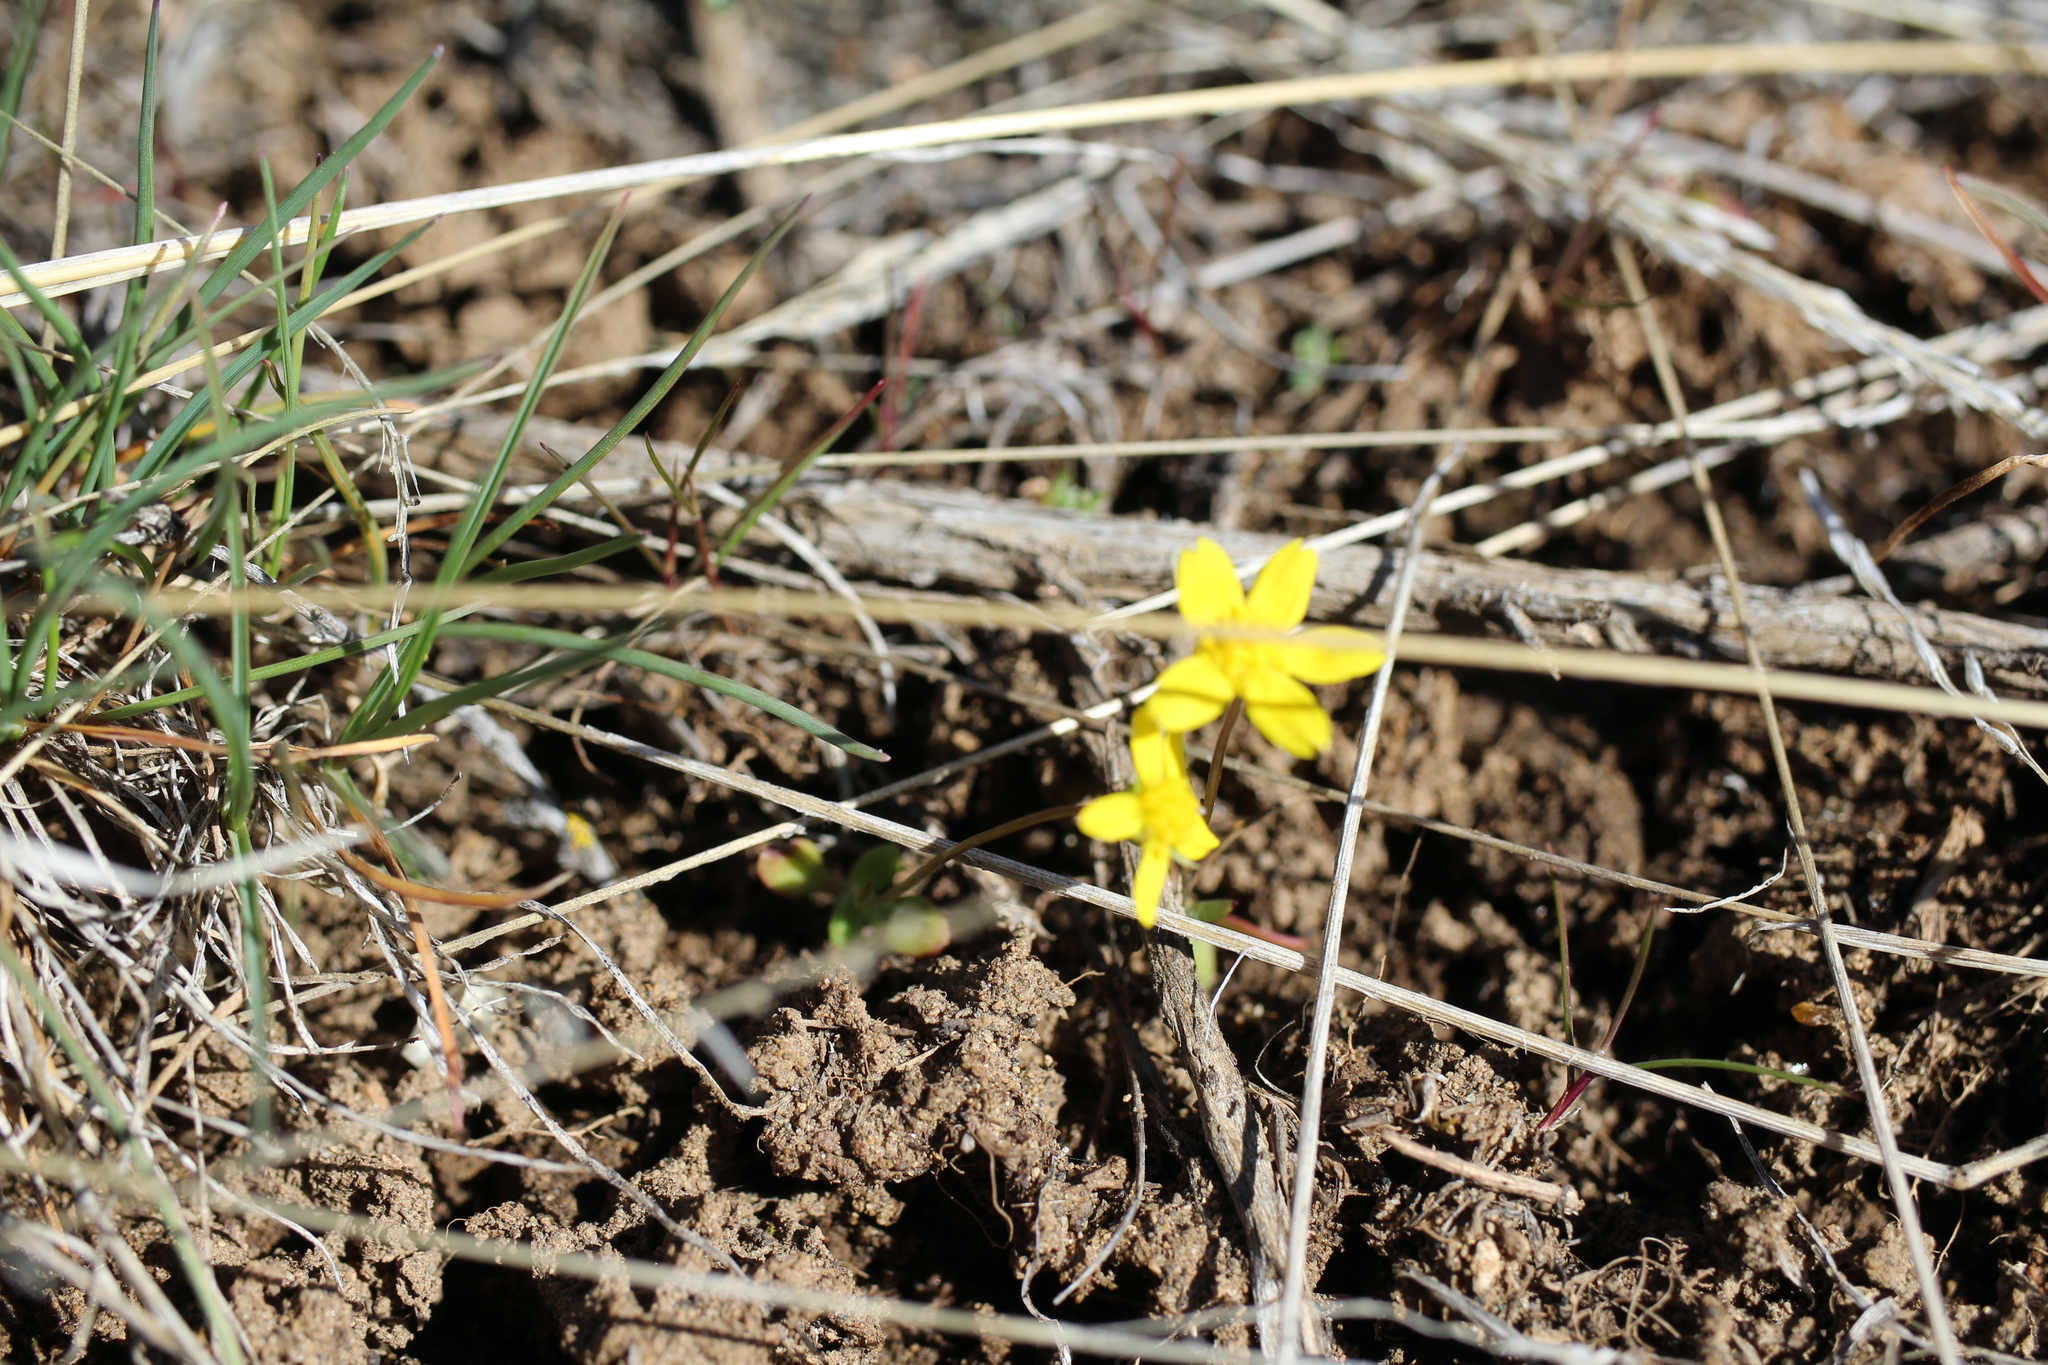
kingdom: Plantae
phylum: Tracheophyta
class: Magnoliopsida
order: Asterales
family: Asteraceae
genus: Crocidium
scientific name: Crocidium multicaule
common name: Common spring gold
